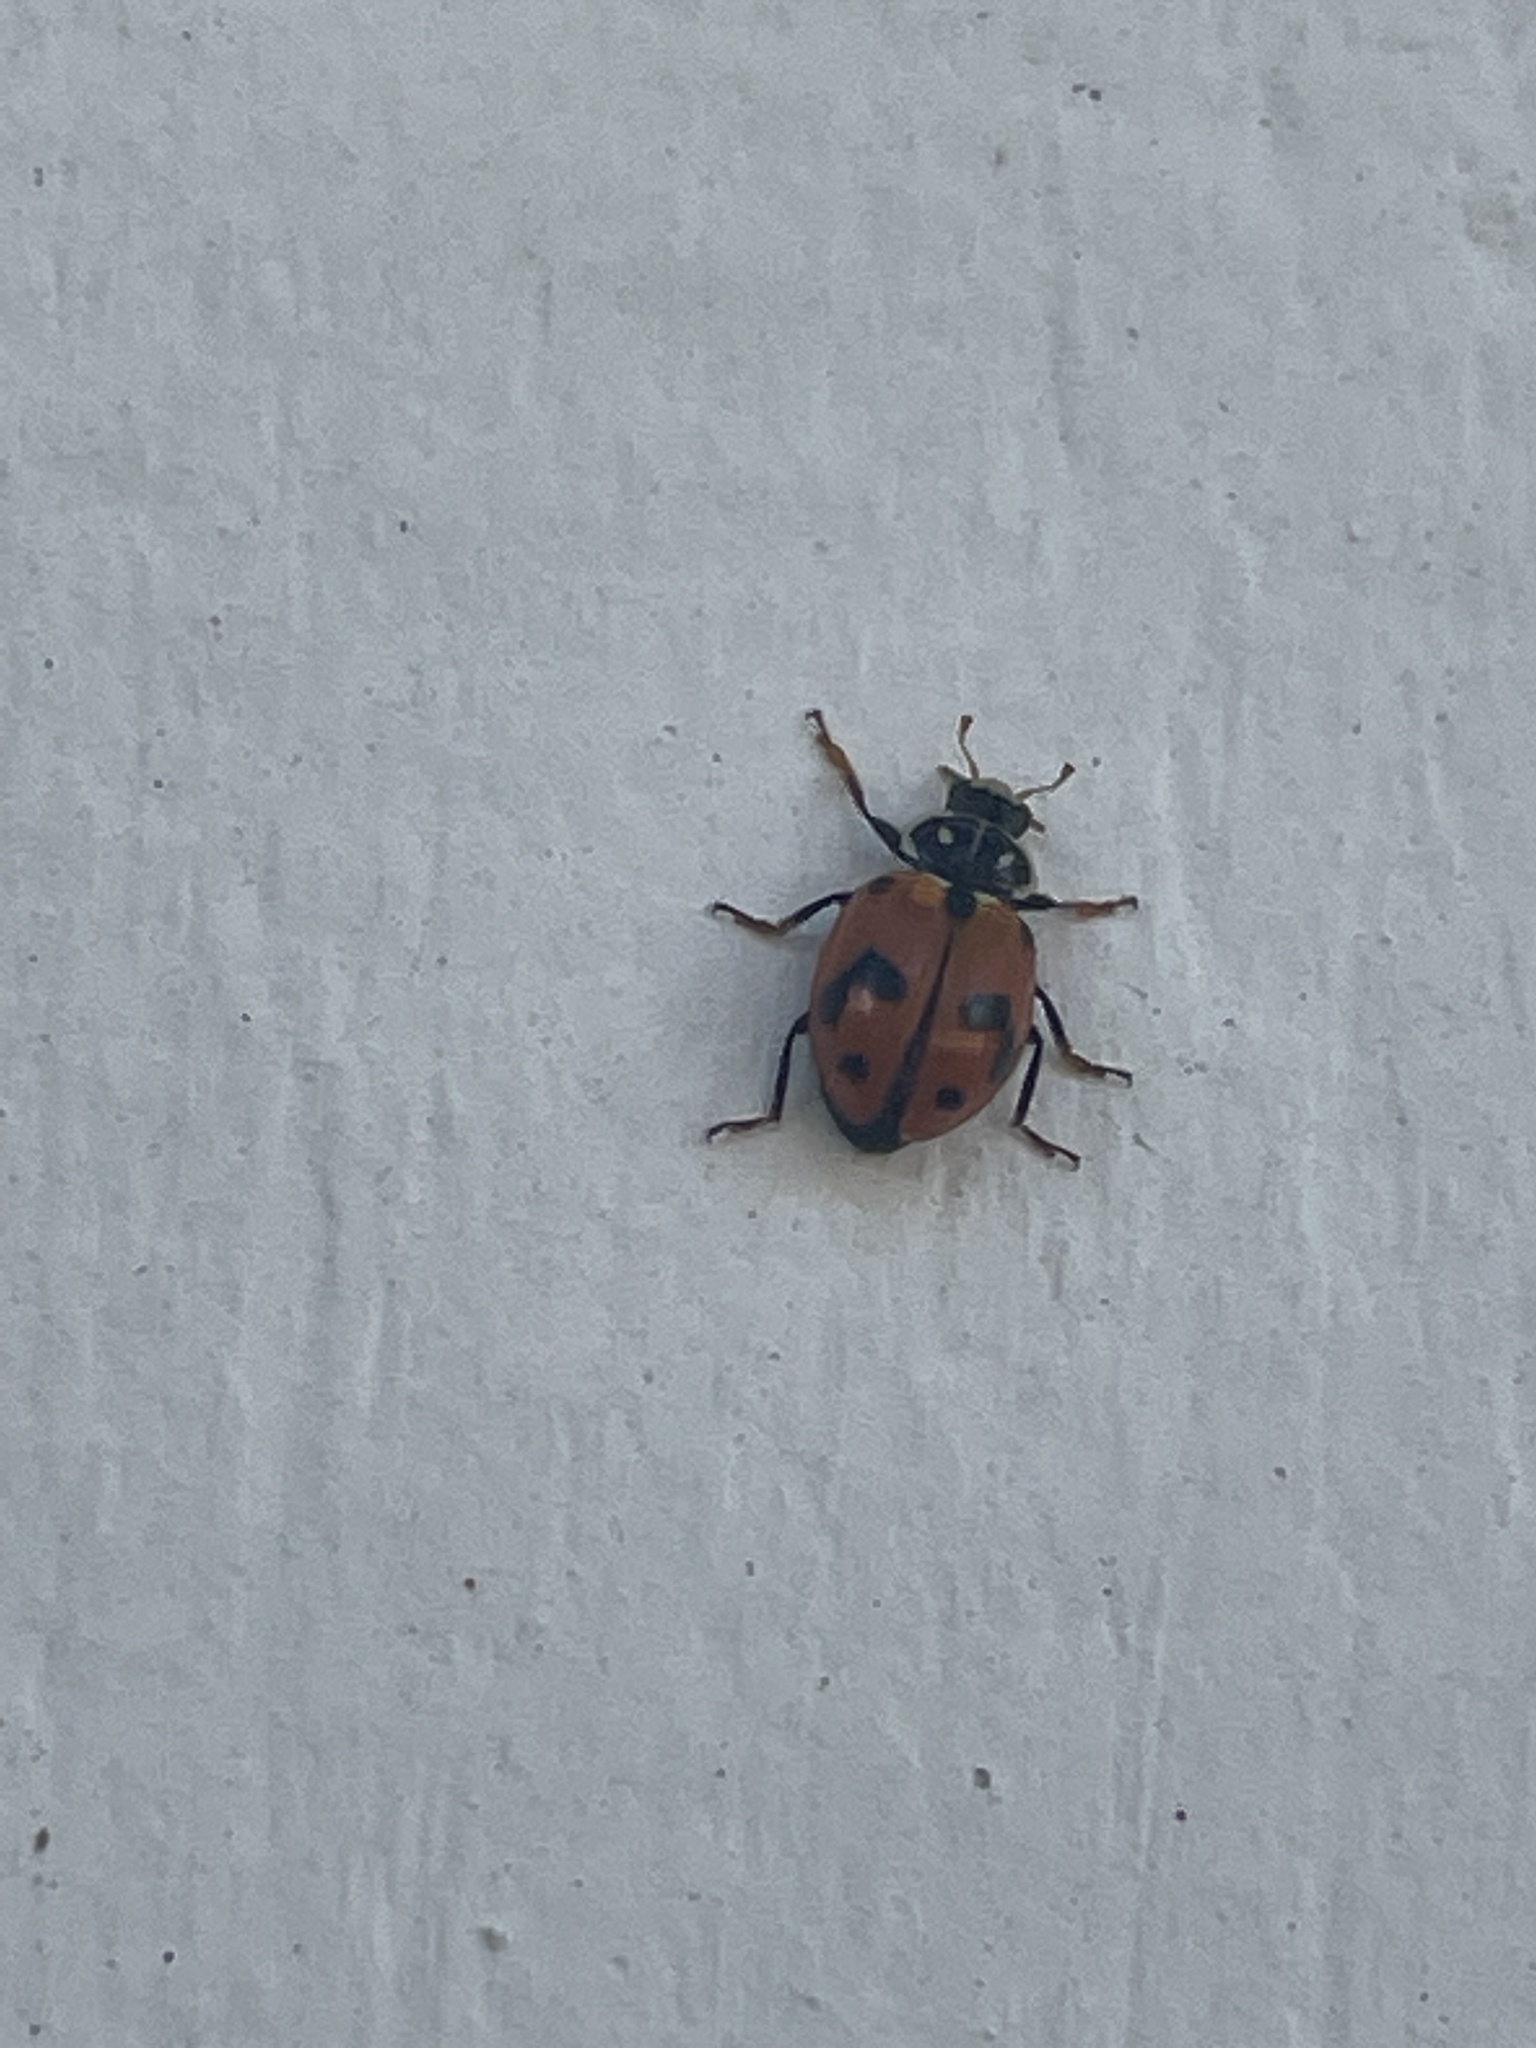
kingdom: Animalia
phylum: Arthropoda
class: Insecta
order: Coleoptera
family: Coccinellidae
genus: Hippodamia
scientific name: Hippodamia variegata
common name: Ladybird beetle
